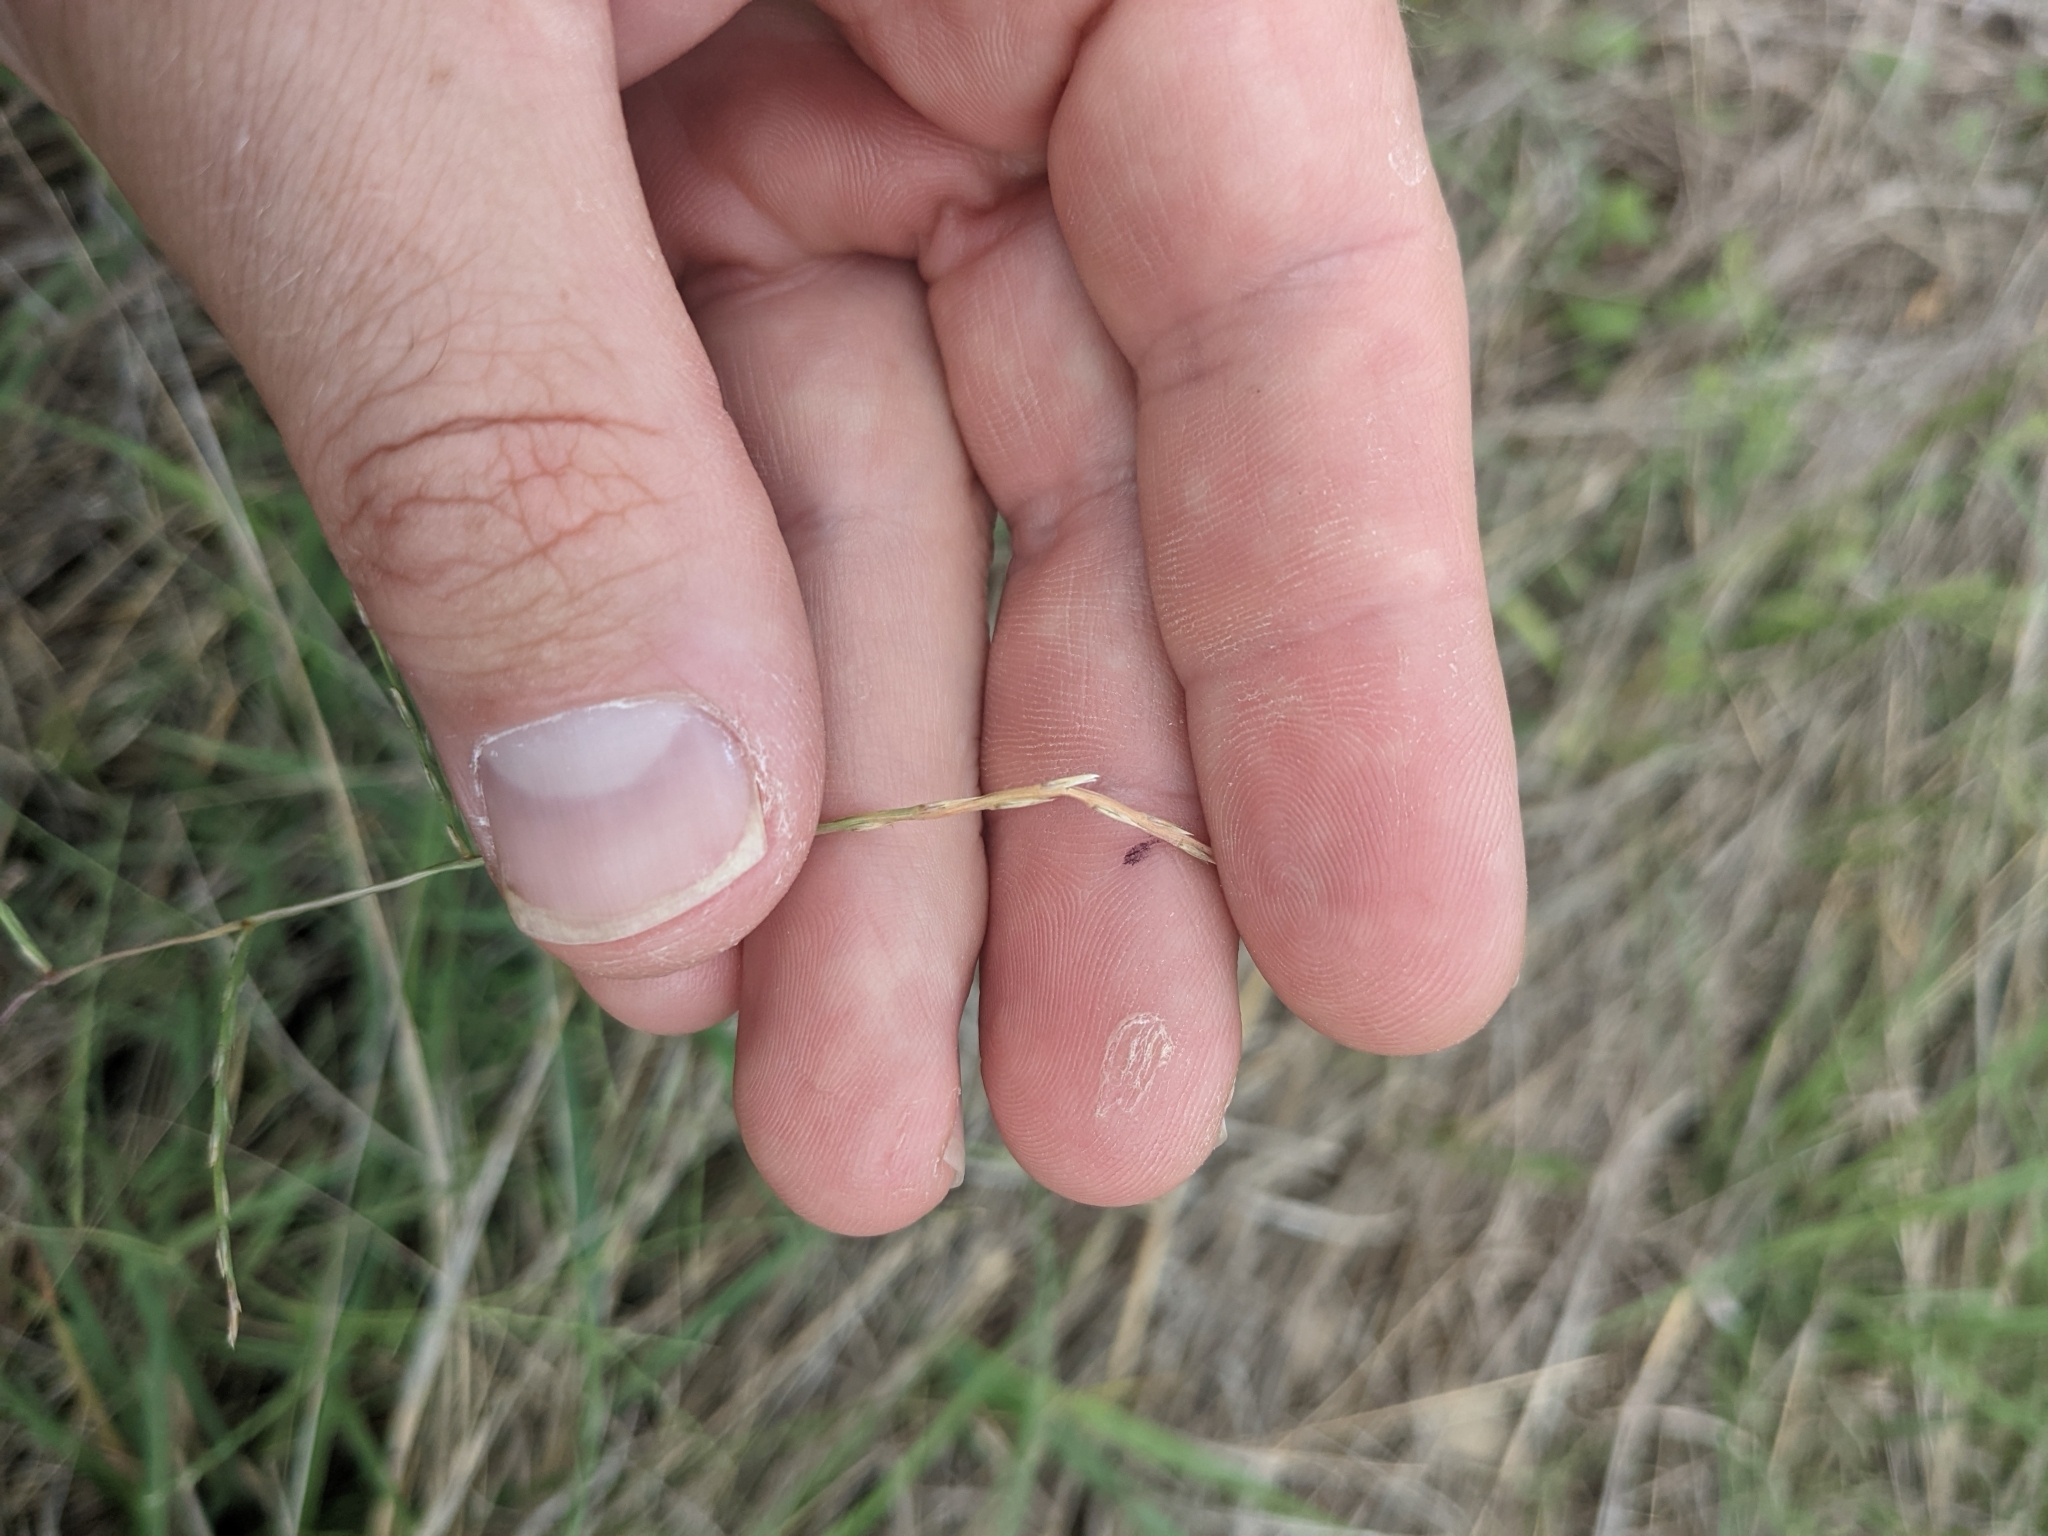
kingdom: Plantae
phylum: Tracheophyta
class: Liliopsida
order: Poales
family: Poaceae
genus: Muhlenbergia
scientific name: Muhlenbergia paniculata
